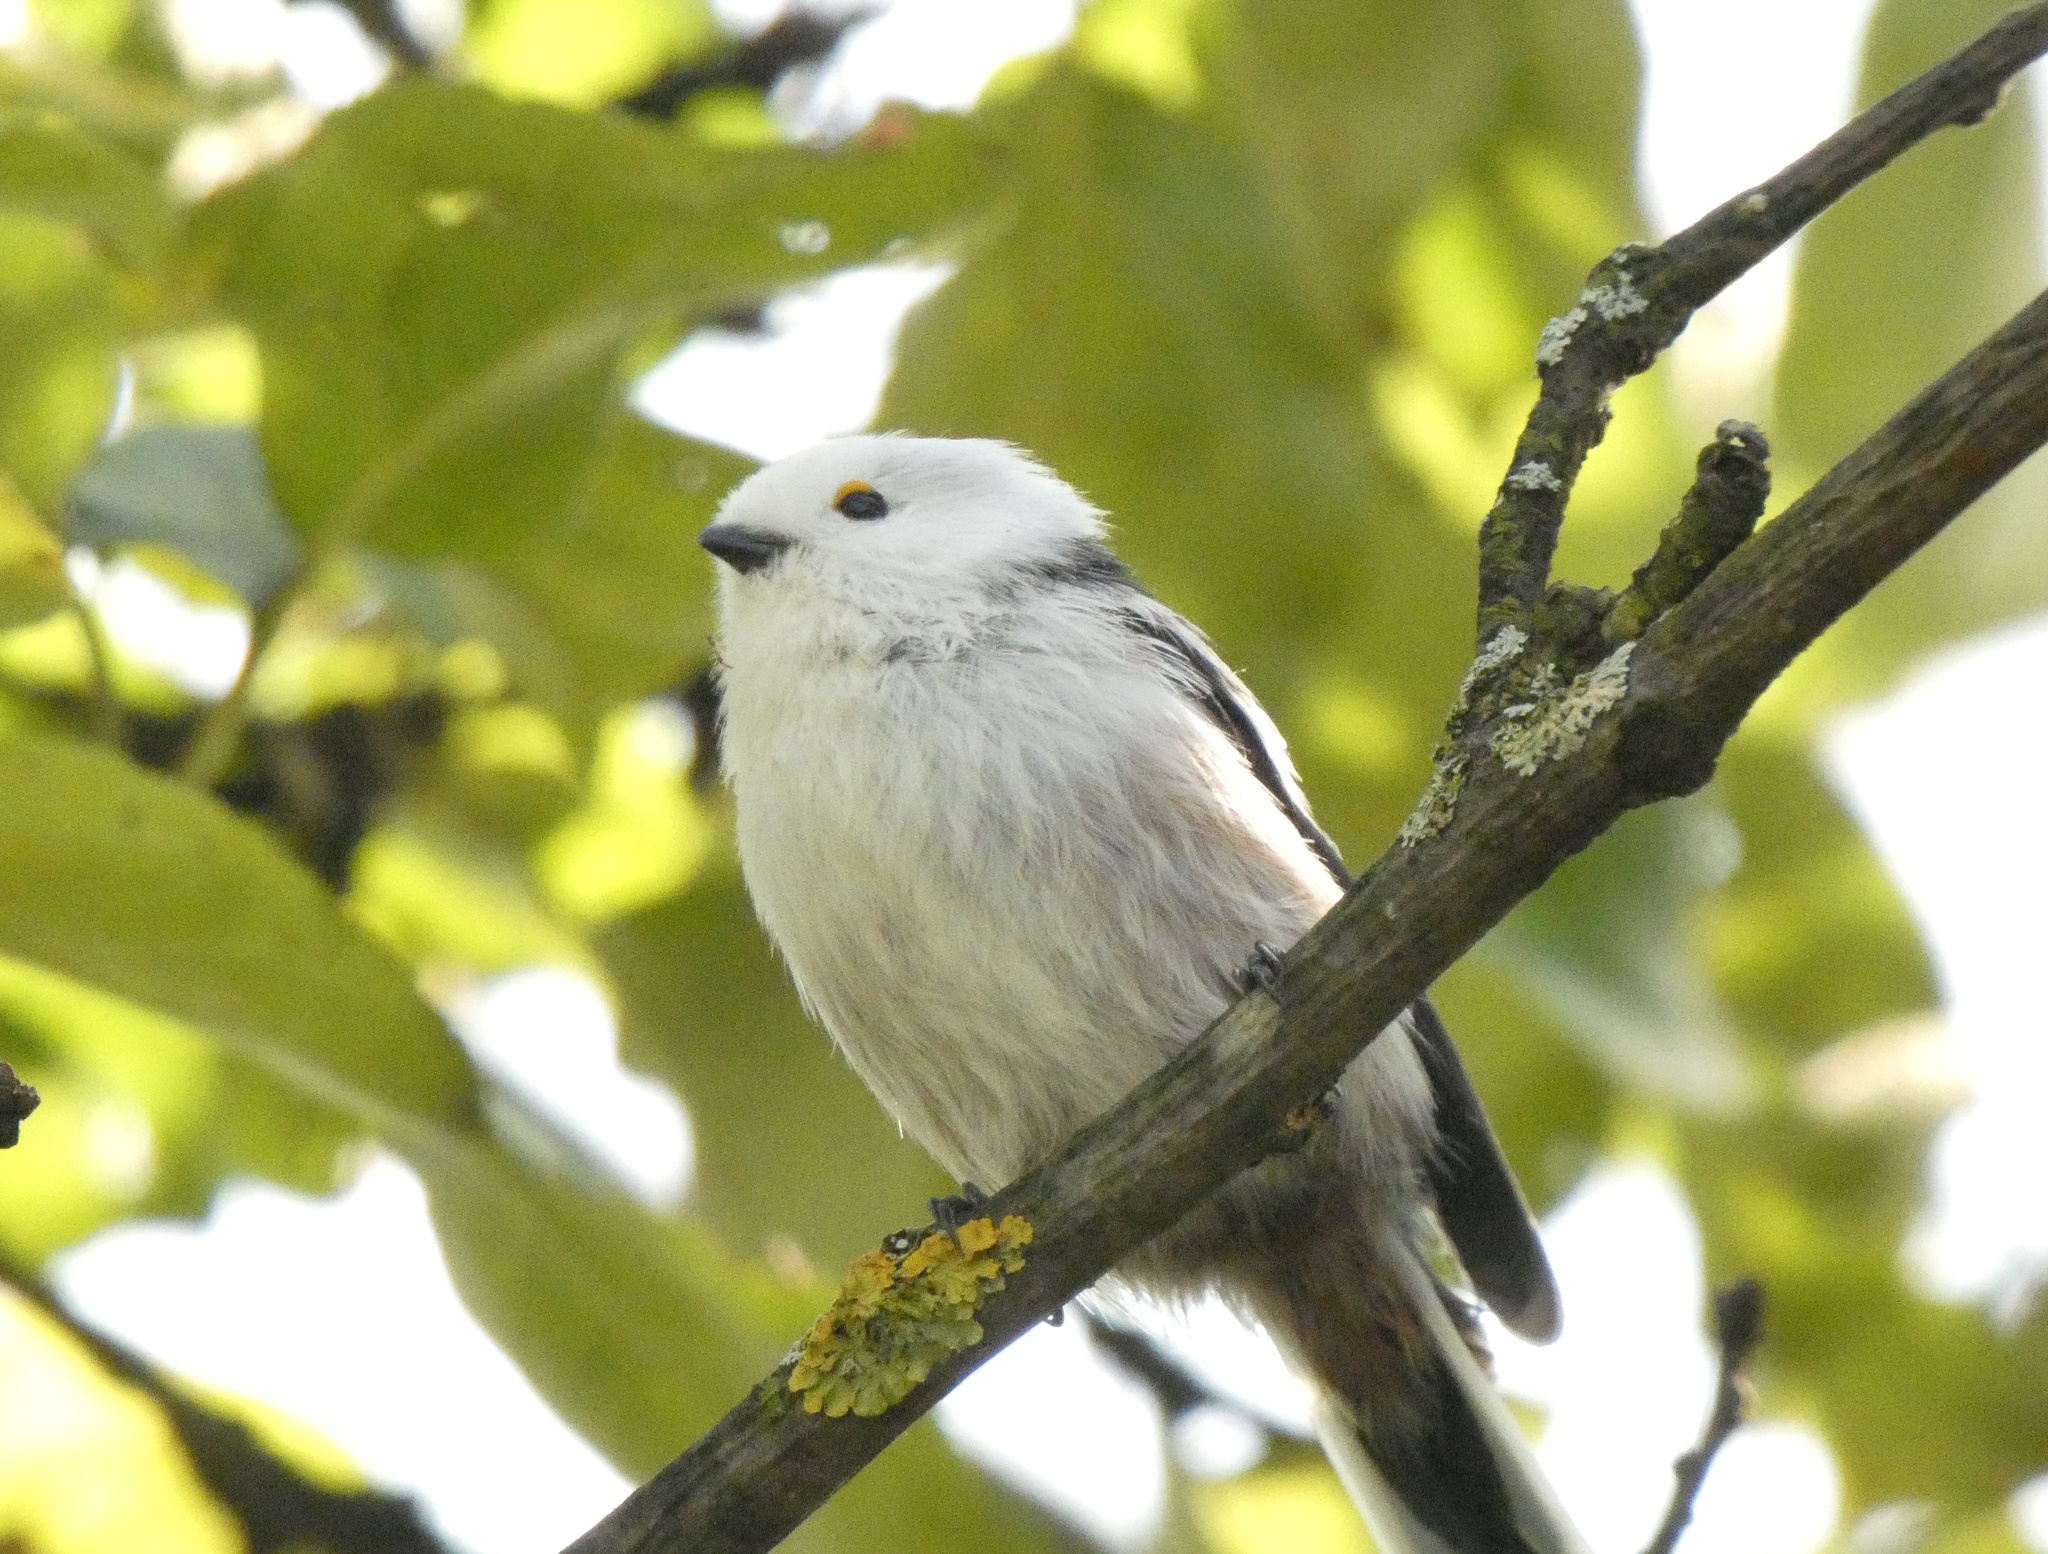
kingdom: Animalia
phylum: Chordata
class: Aves
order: Passeriformes
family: Aegithalidae
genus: Aegithalos
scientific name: Aegithalos caudatus
